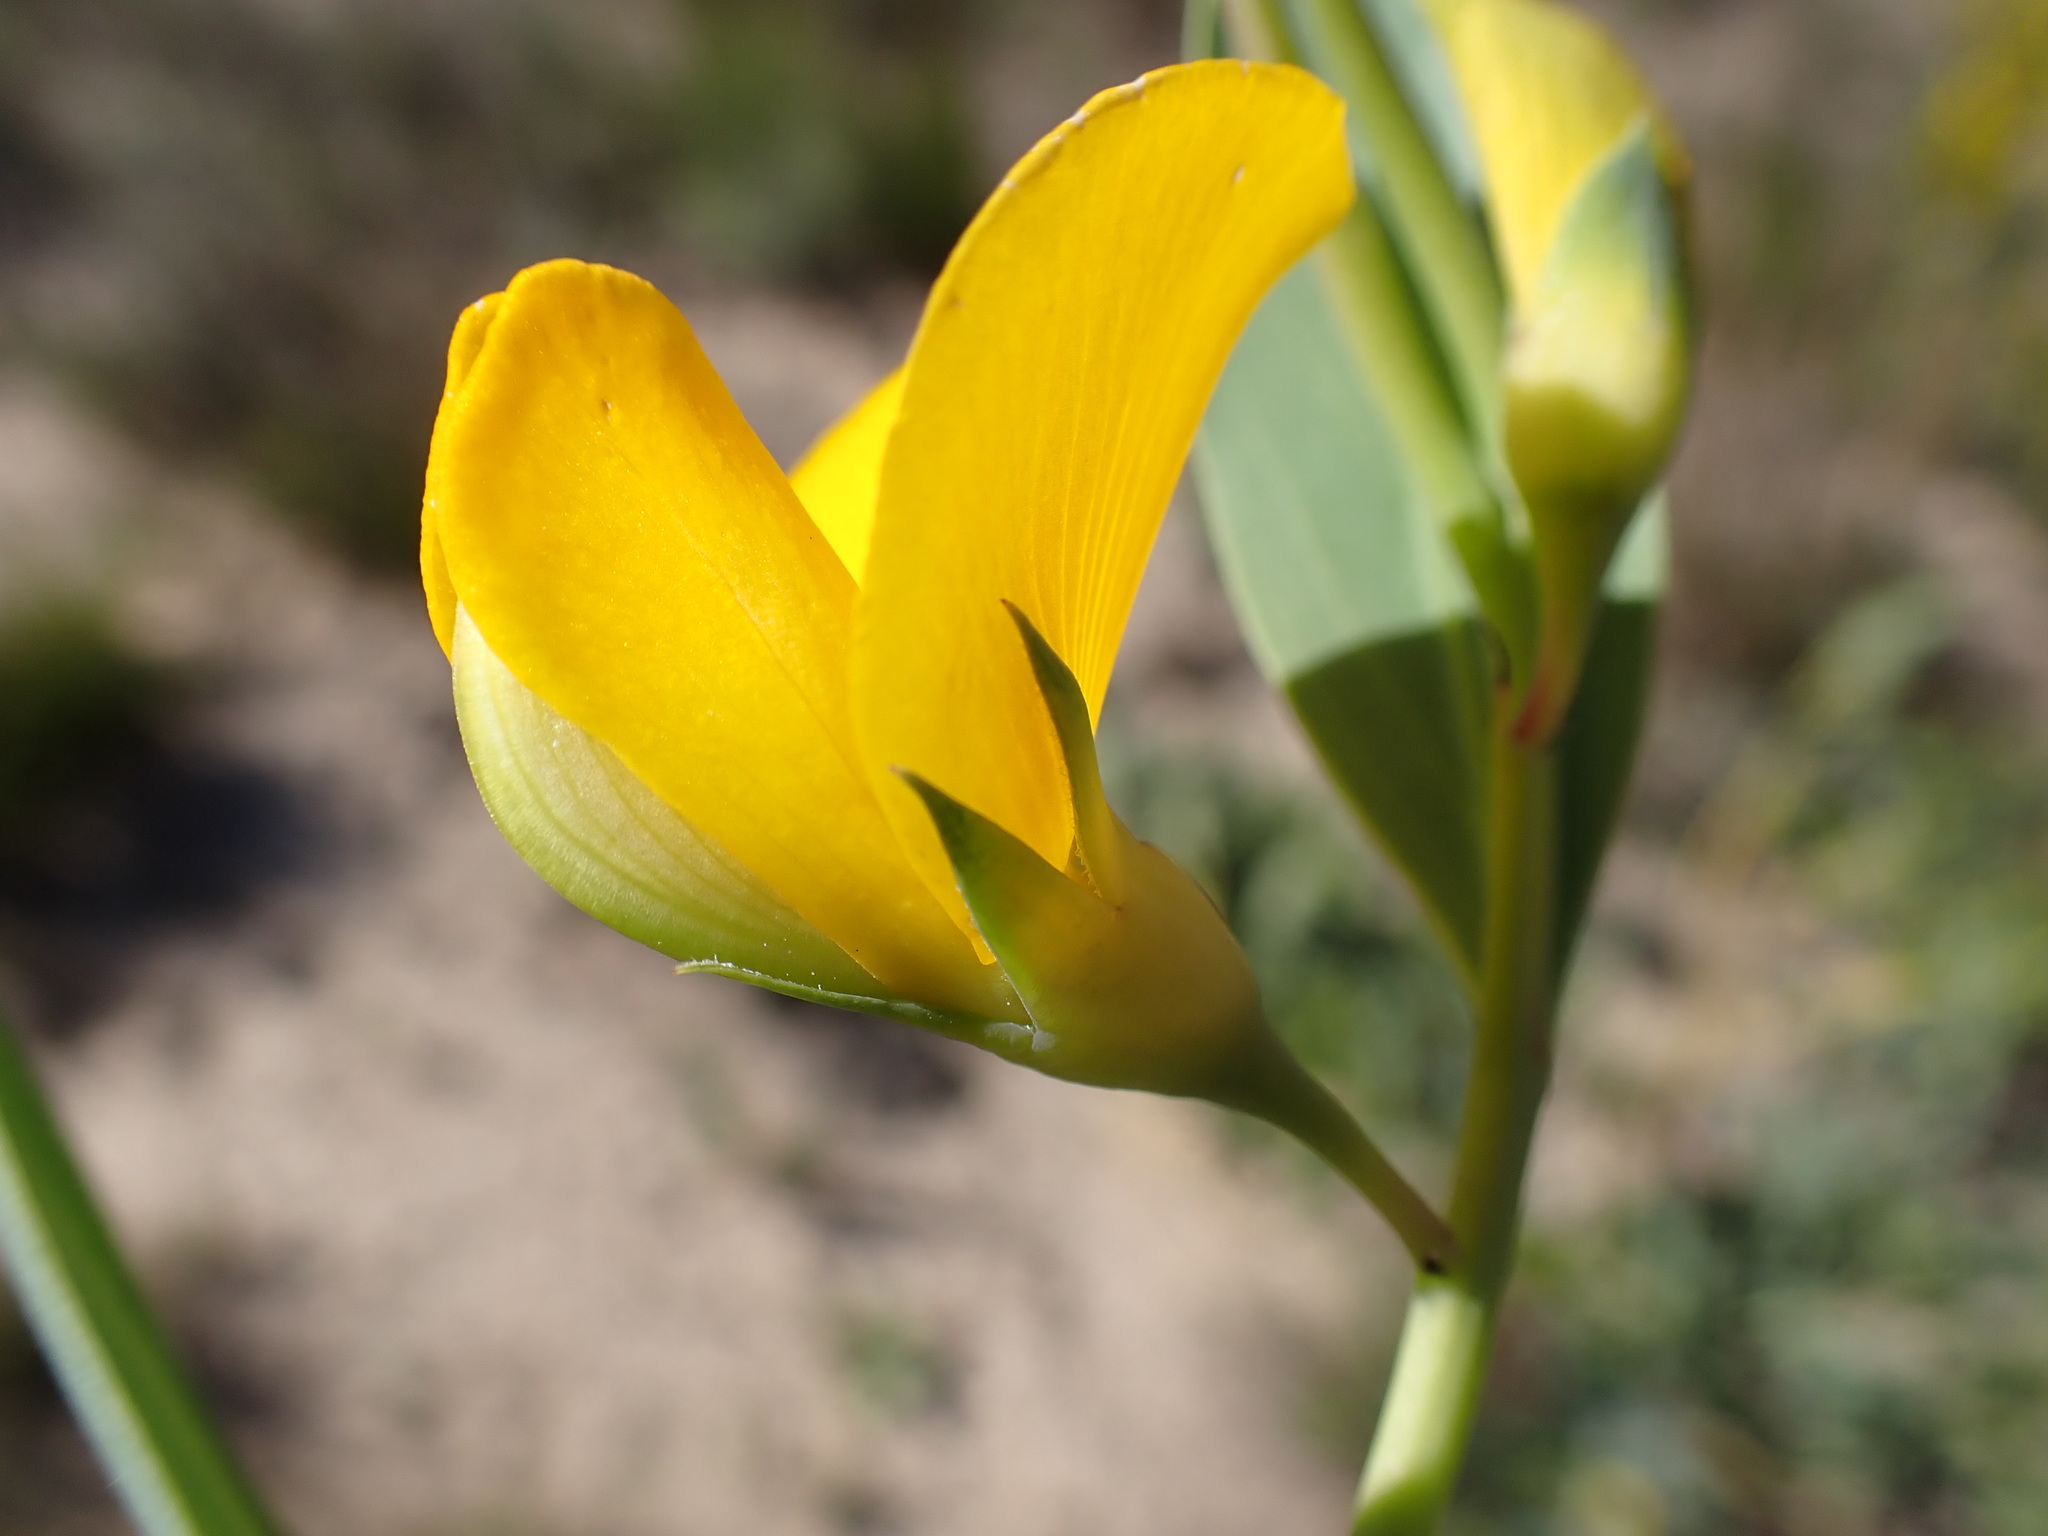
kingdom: Plantae
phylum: Tracheophyta
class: Magnoliopsida
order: Fabales
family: Fabaceae
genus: Rafnia
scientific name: Rafnia racemosa
